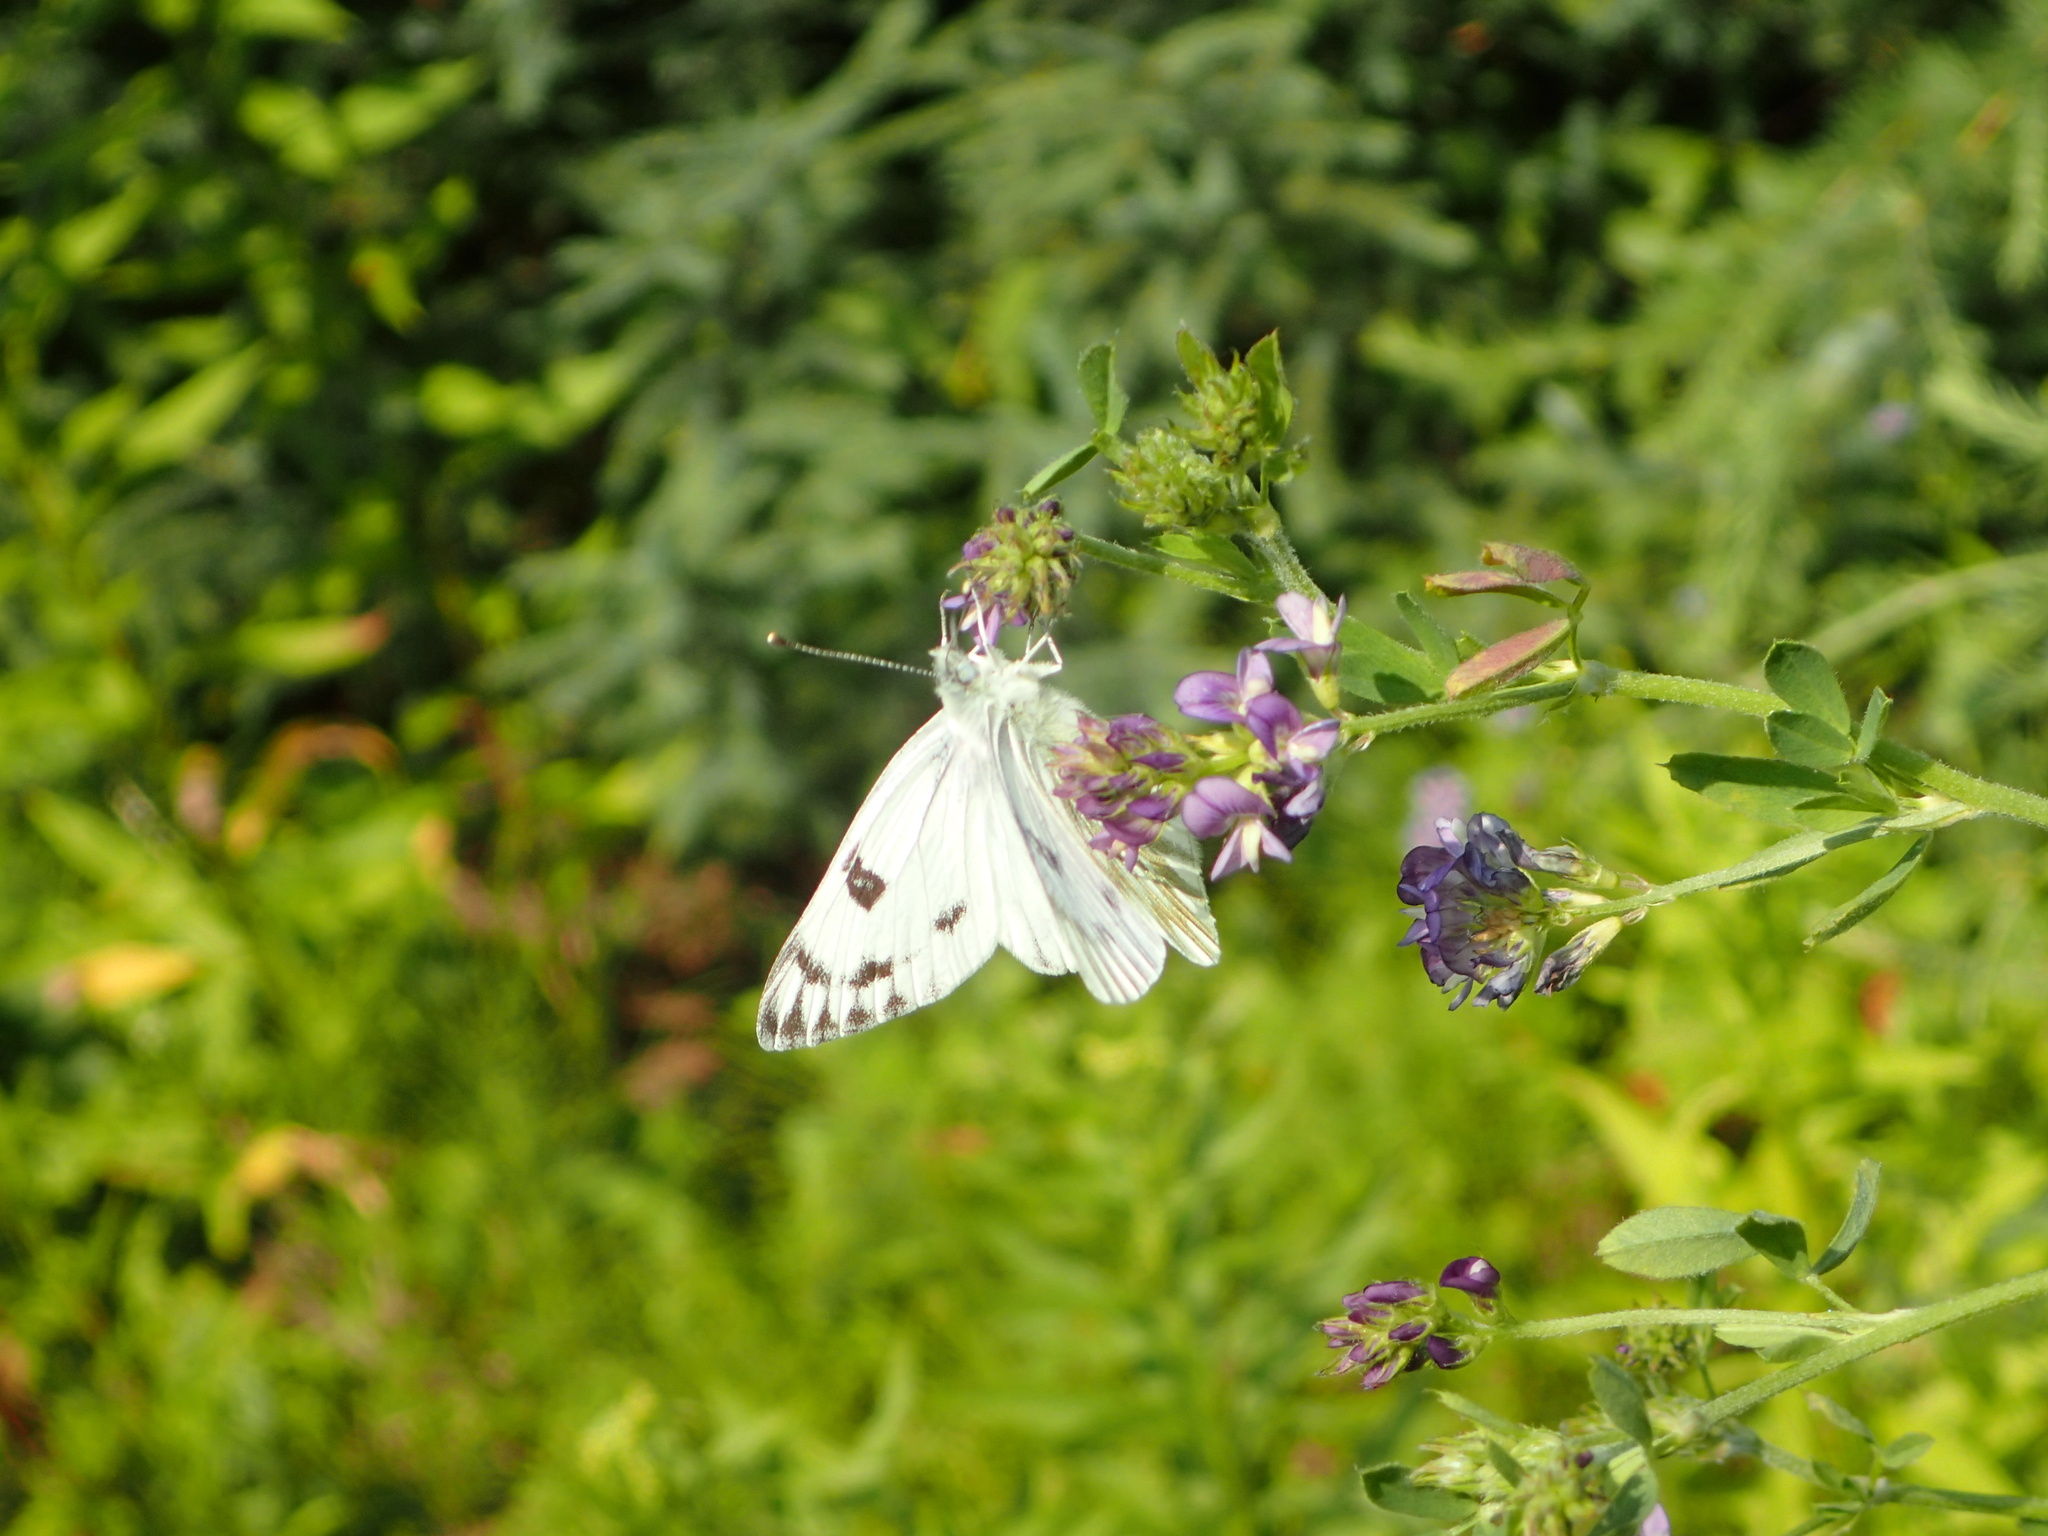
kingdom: Animalia
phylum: Arthropoda
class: Insecta
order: Lepidoptera
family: Pieridae
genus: Pontia
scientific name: Pontia occidentalis
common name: Western white
